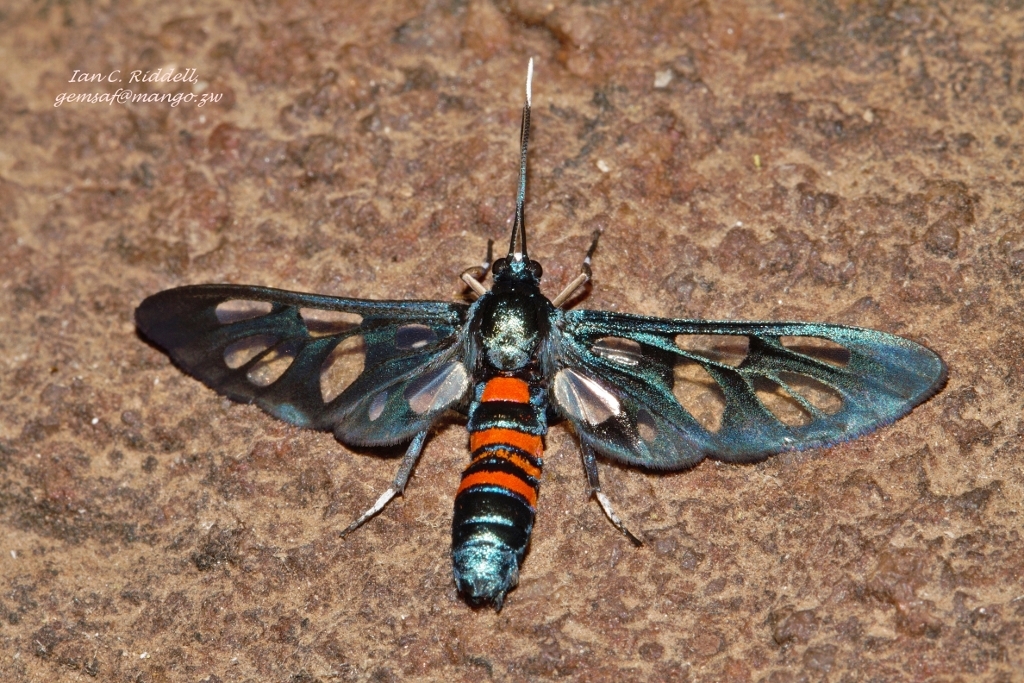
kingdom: Animalia
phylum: Arthropoda
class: Insecta
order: Lepidoptera
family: Erebidae
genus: Amata
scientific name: Amata cerbera
